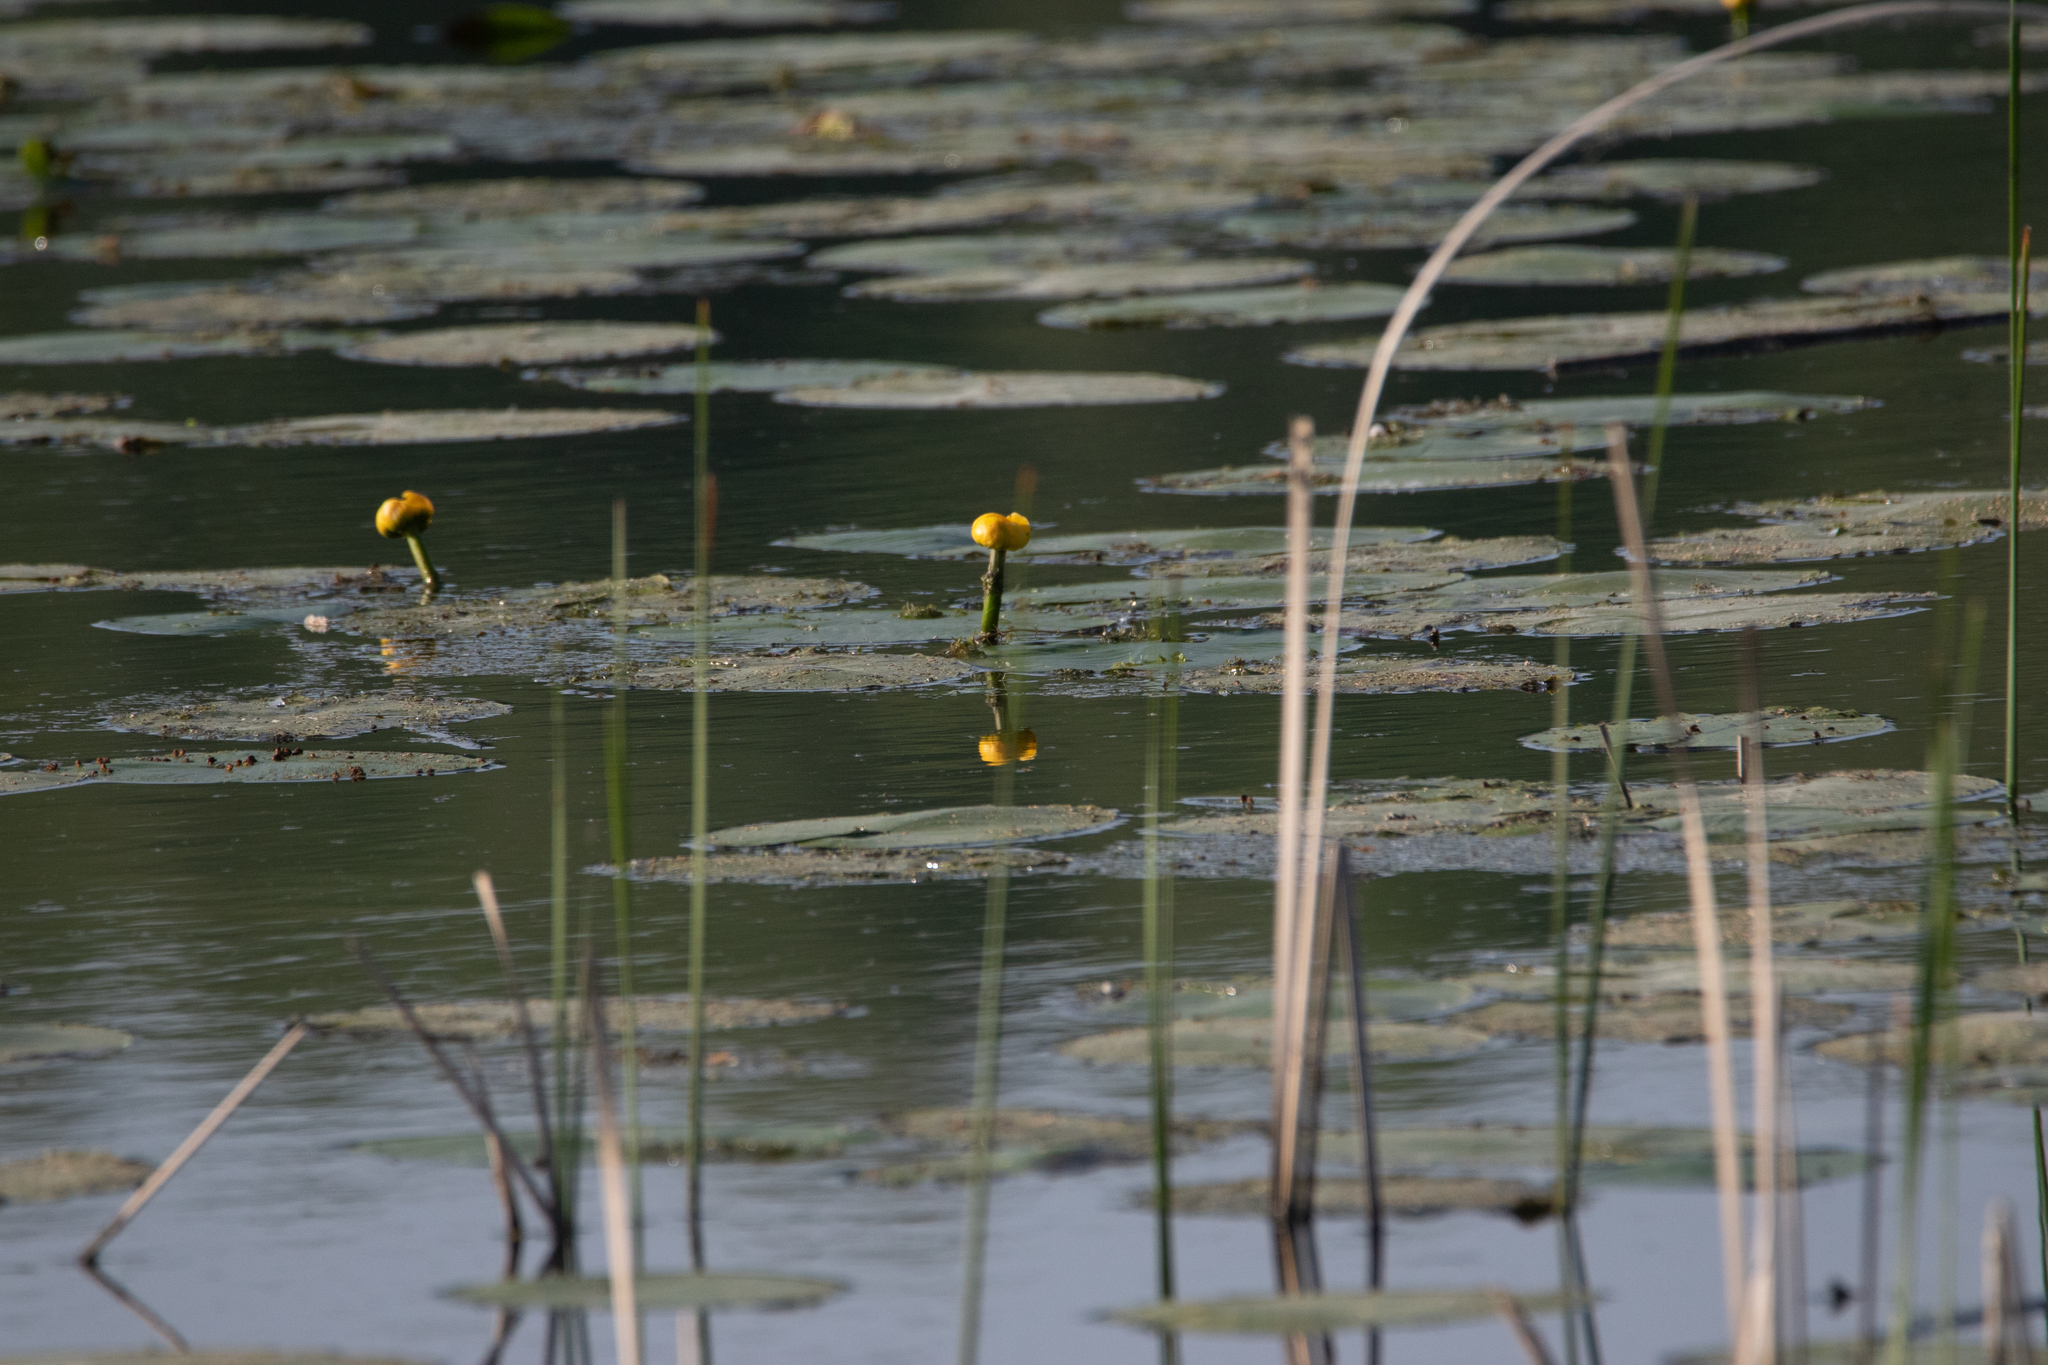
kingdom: Plantae
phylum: Tracheophyta
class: Magnoliopsida
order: Nymphaeales
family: Nymphaeaceae
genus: Nuphar
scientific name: Nuphar lutea
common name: Yellow water-lily
